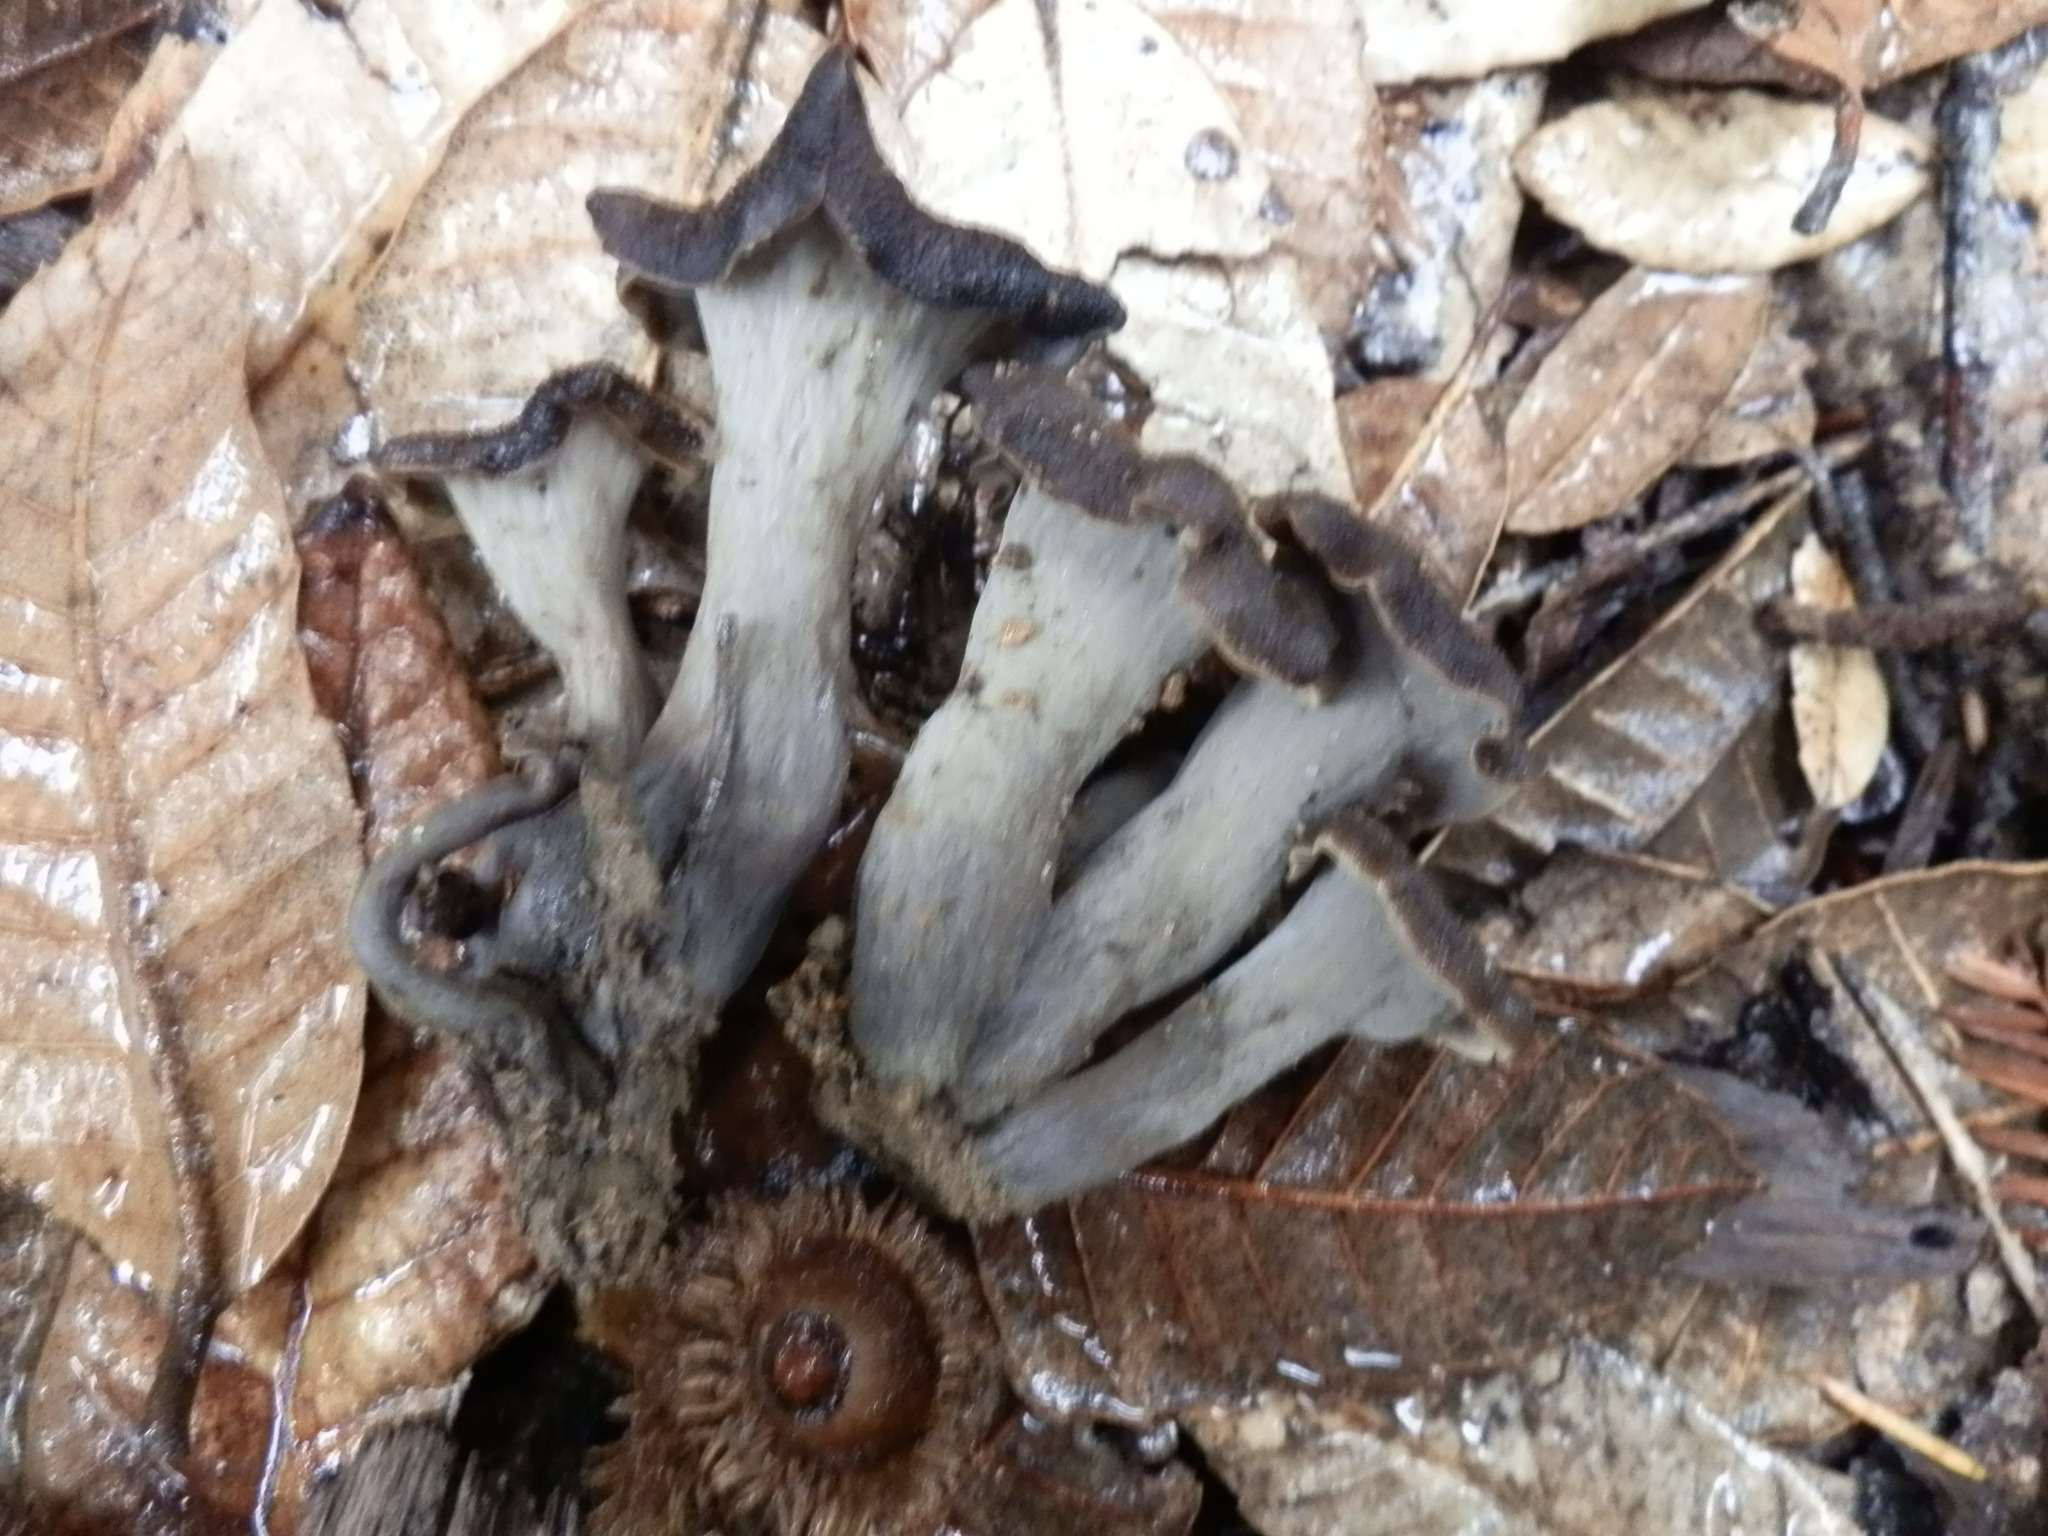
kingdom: Fungi
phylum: Basidiomycota
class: Agaricomycetes
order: Cantharellales
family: Hydnaceae
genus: Craterellus
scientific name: Craterellus calicornucopioides
